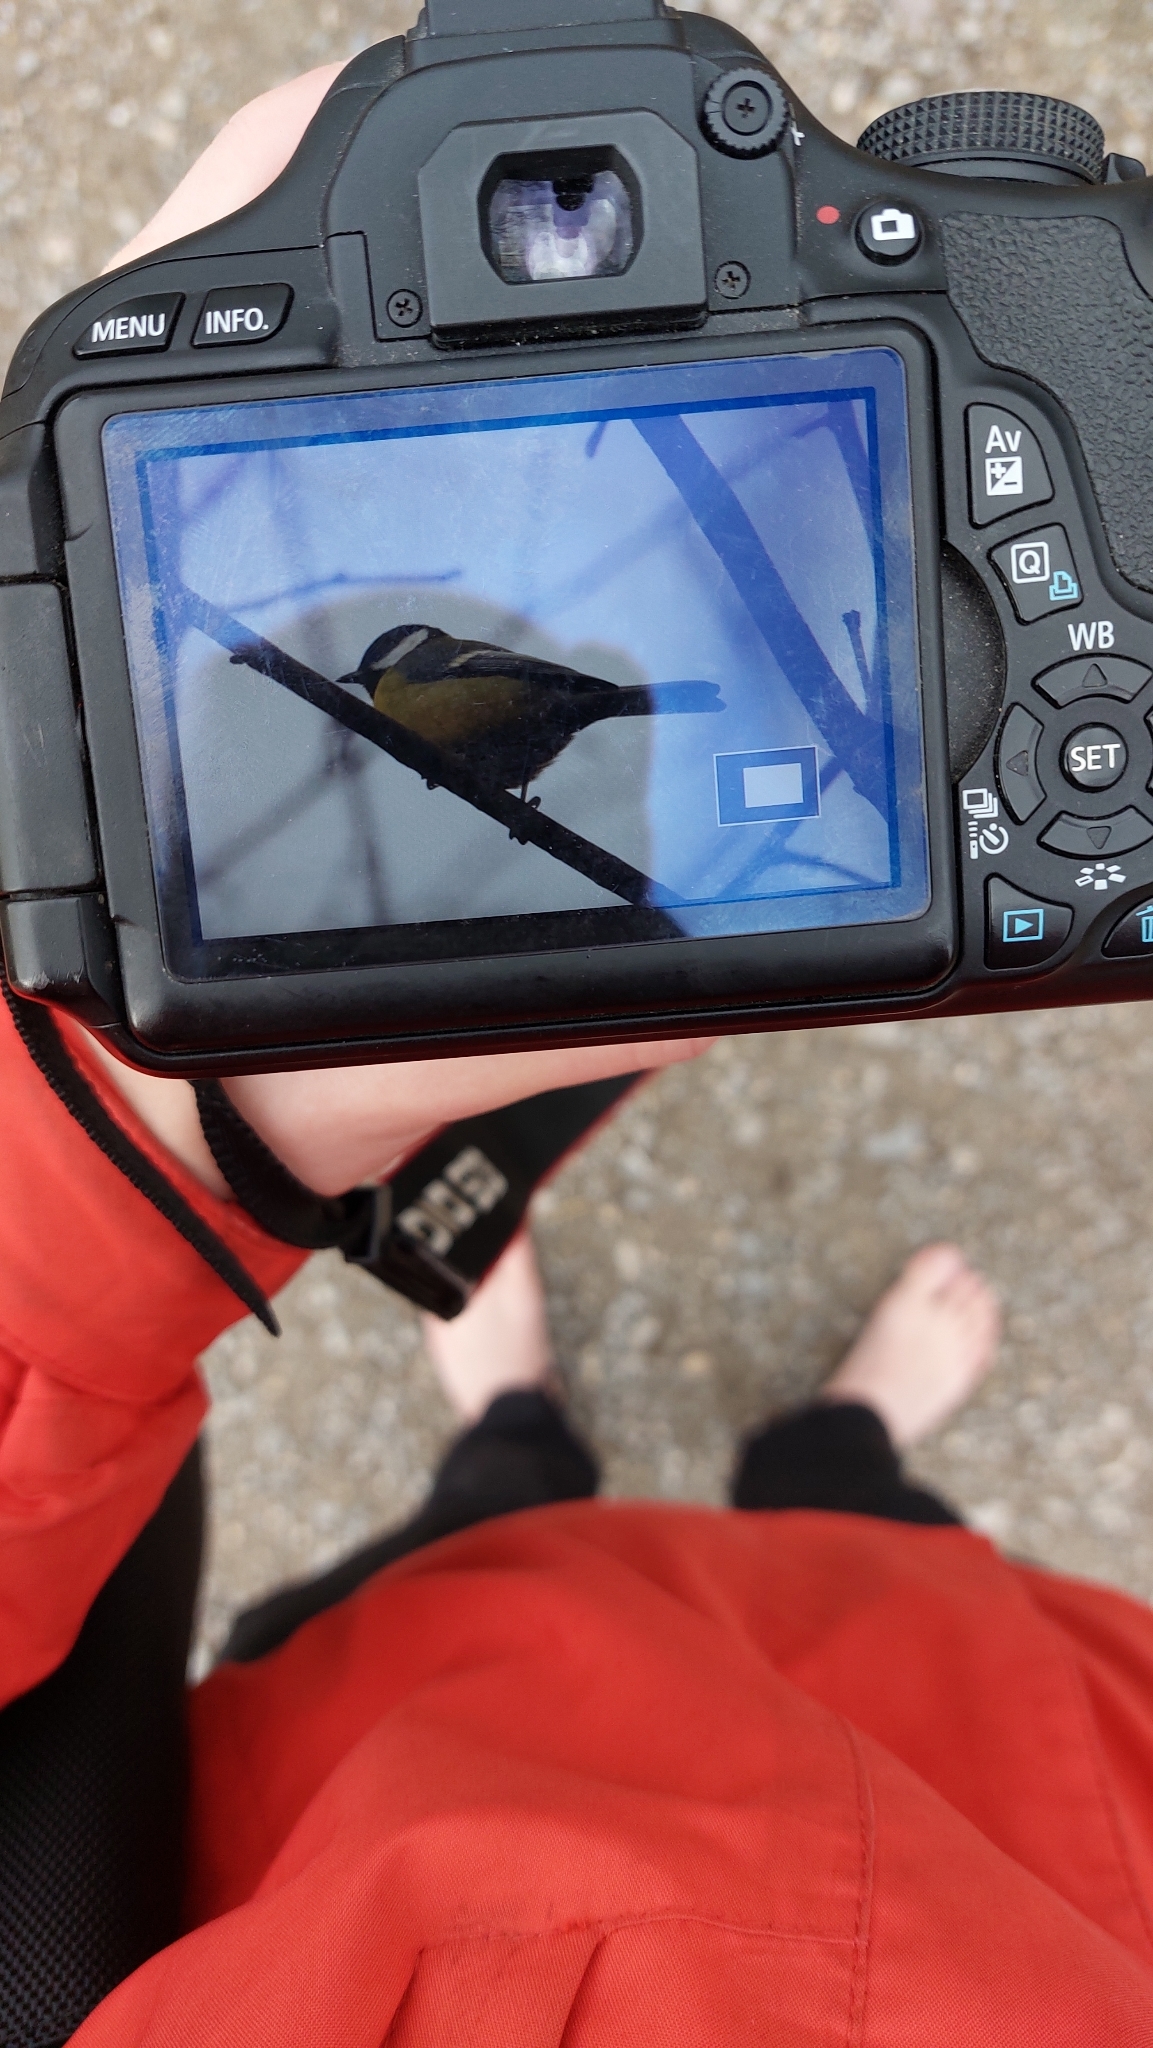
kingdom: Animalia
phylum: Chordata
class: Aves
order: Passeriformes
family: Paridae
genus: Parus
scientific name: Parus major
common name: Great tit
